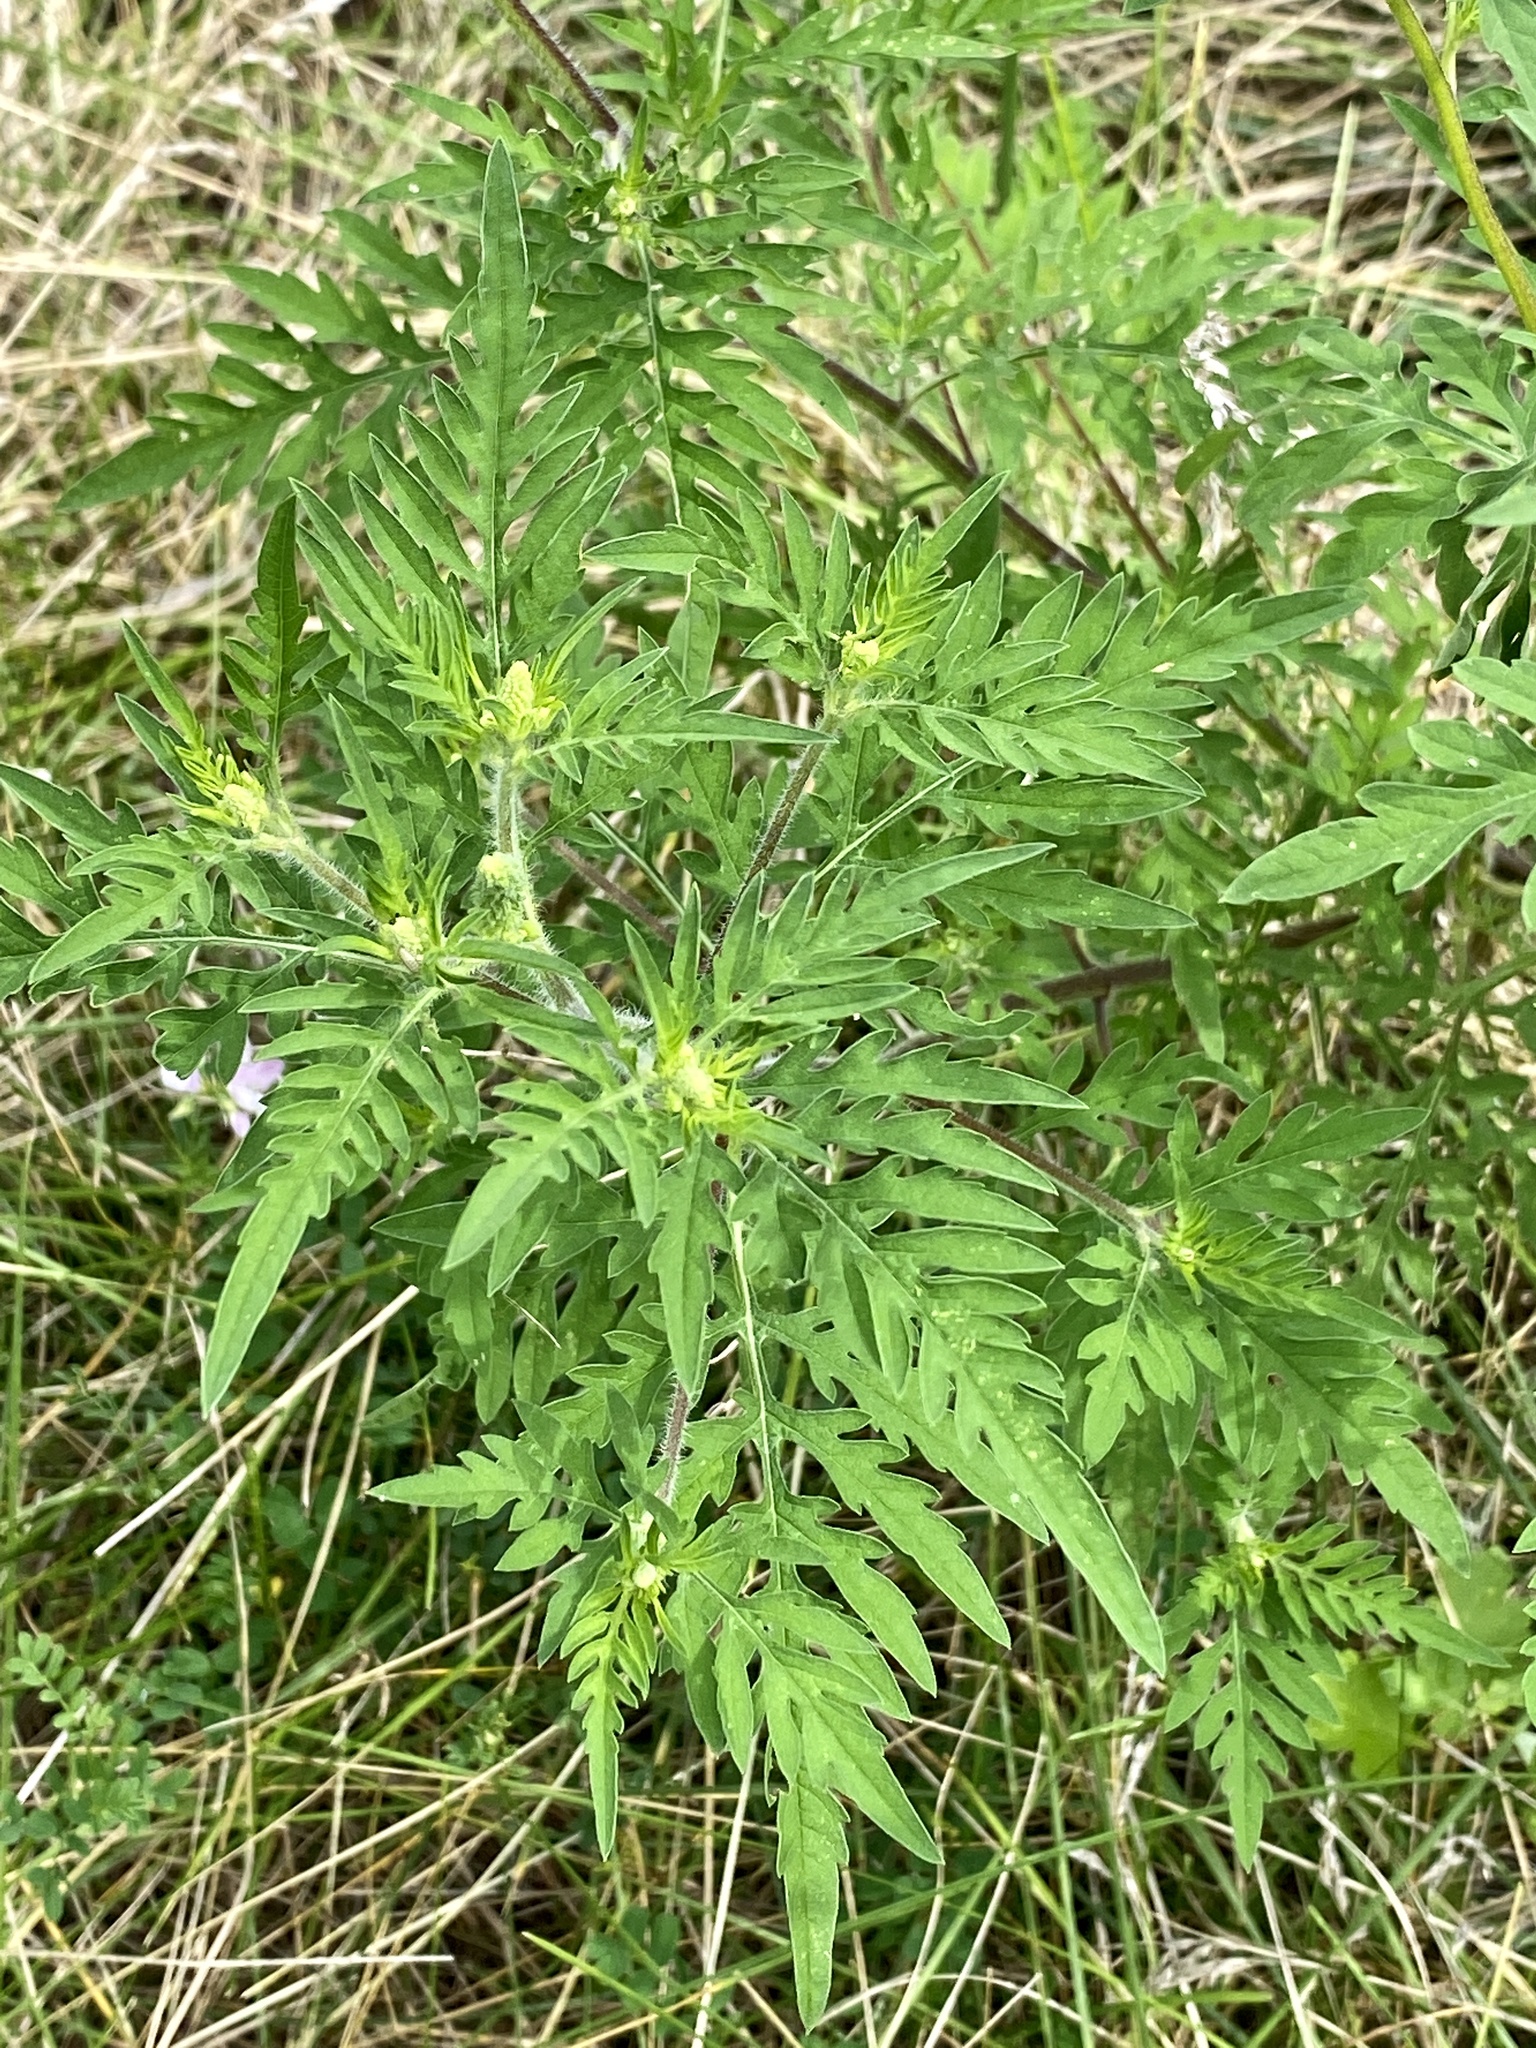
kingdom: Plantae
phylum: Tracheophyta
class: Magnoliopsida
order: Asterales
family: Asteraceae
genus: Ambrosia
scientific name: Ambrosia artemisiifolia
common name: Annual ragweed
